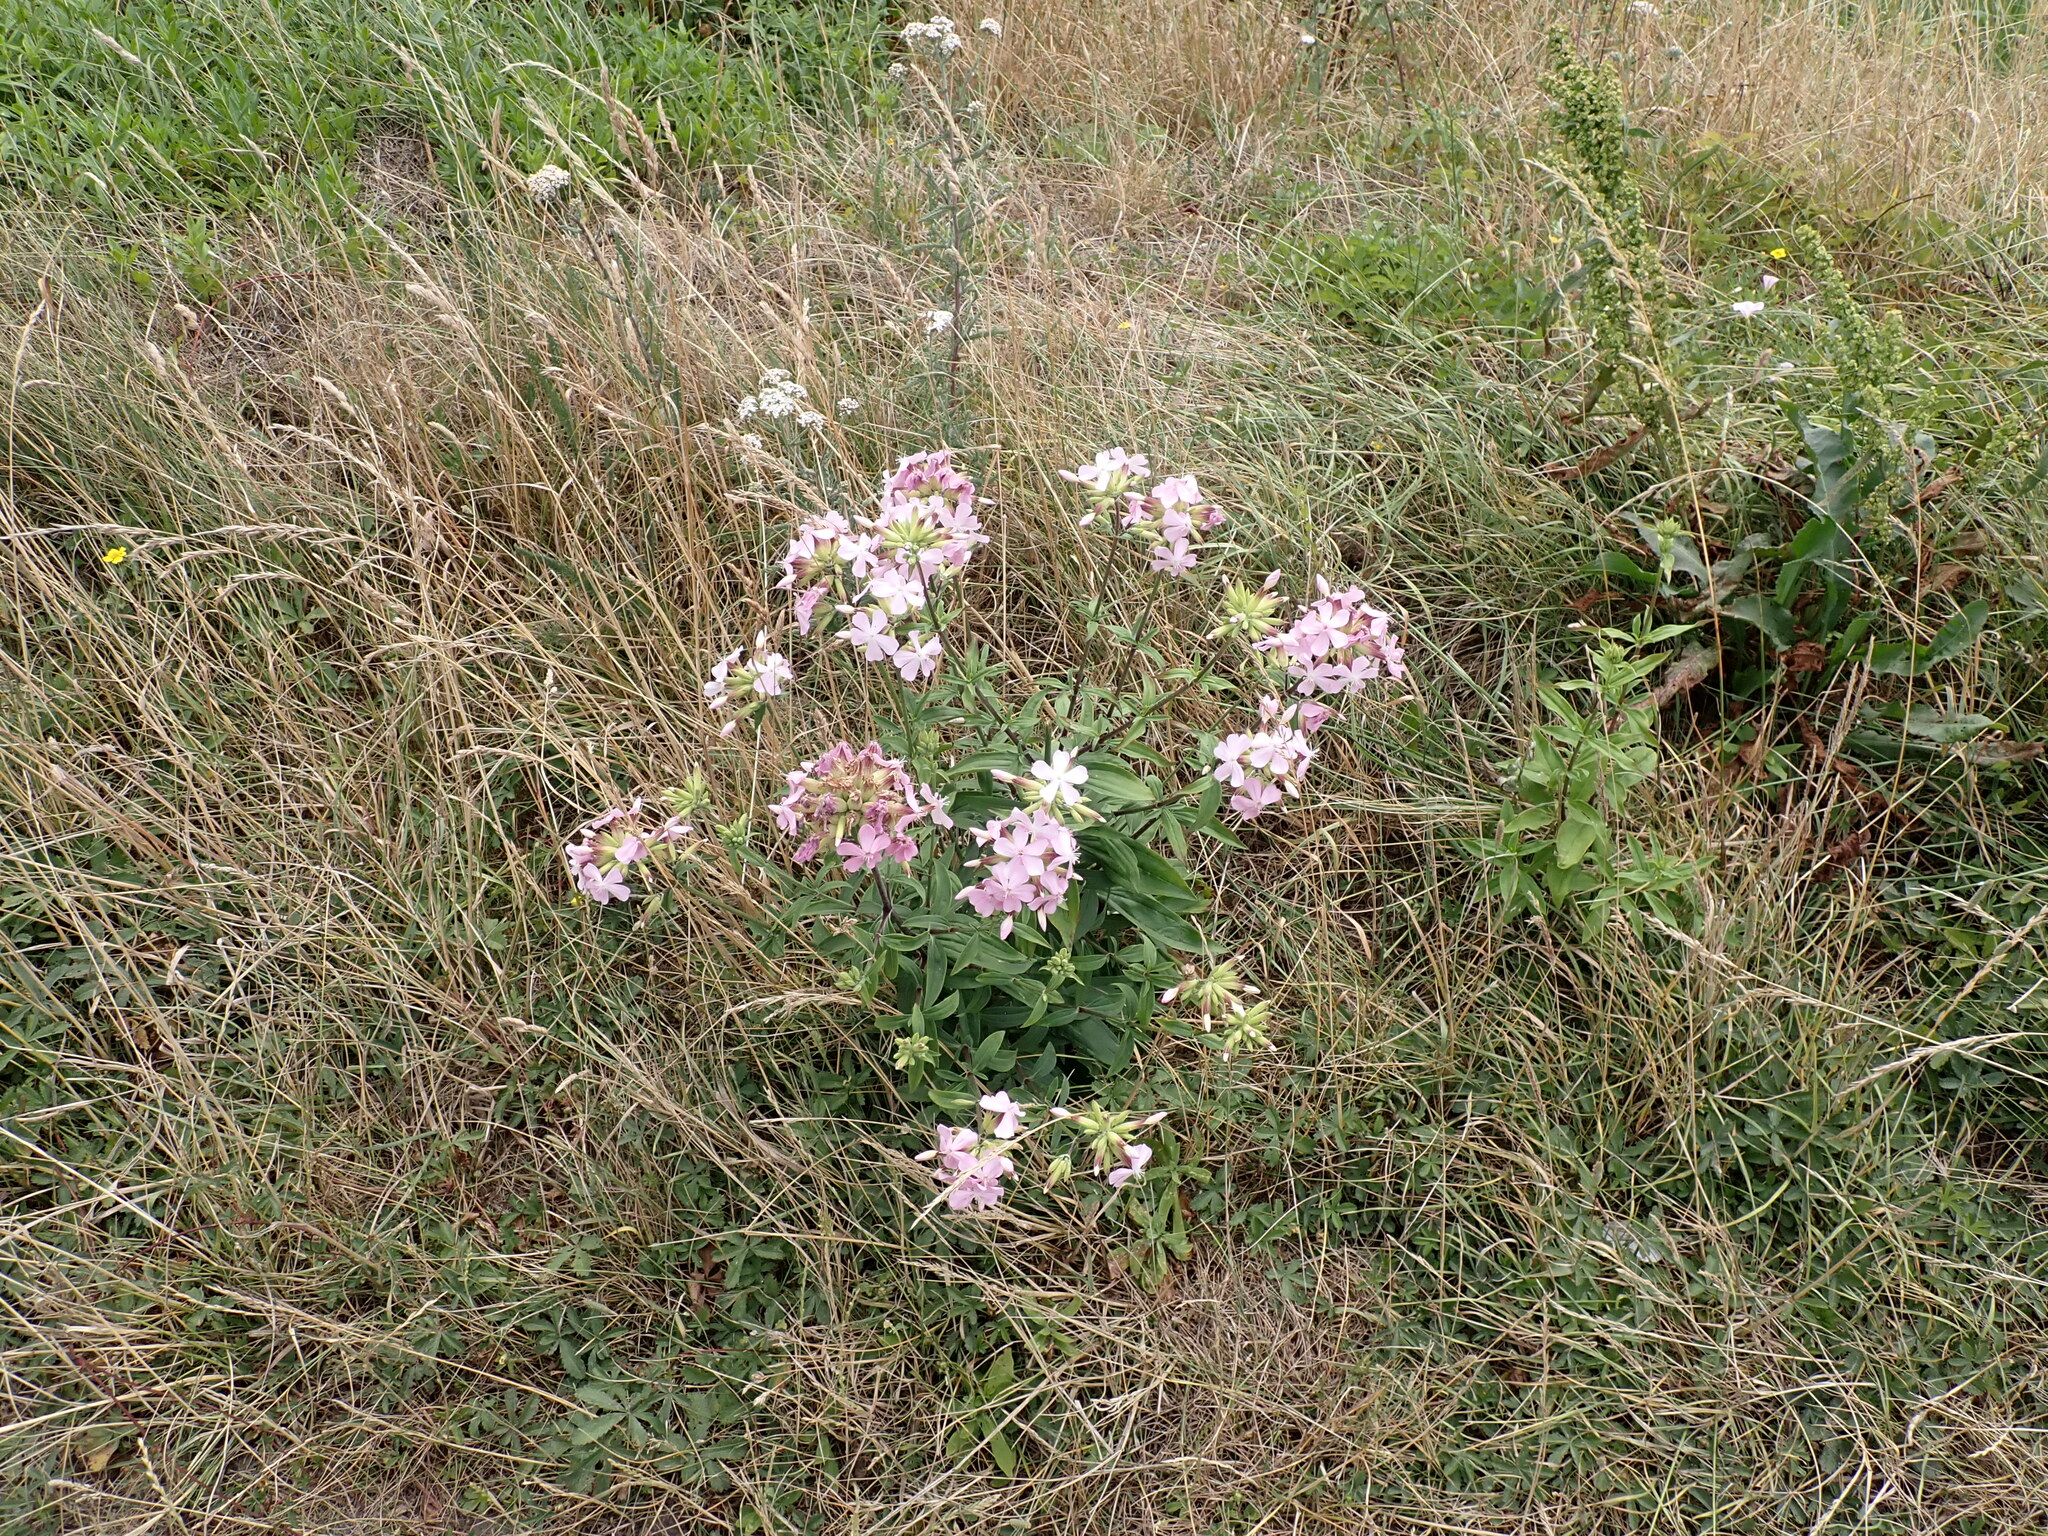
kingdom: Plantae
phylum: Tracheophyta
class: Magnoliopsida
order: Caryophyllales
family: Caryophyllaceae
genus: Saponaria
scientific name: Saponaria officinalis
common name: Soapwort
